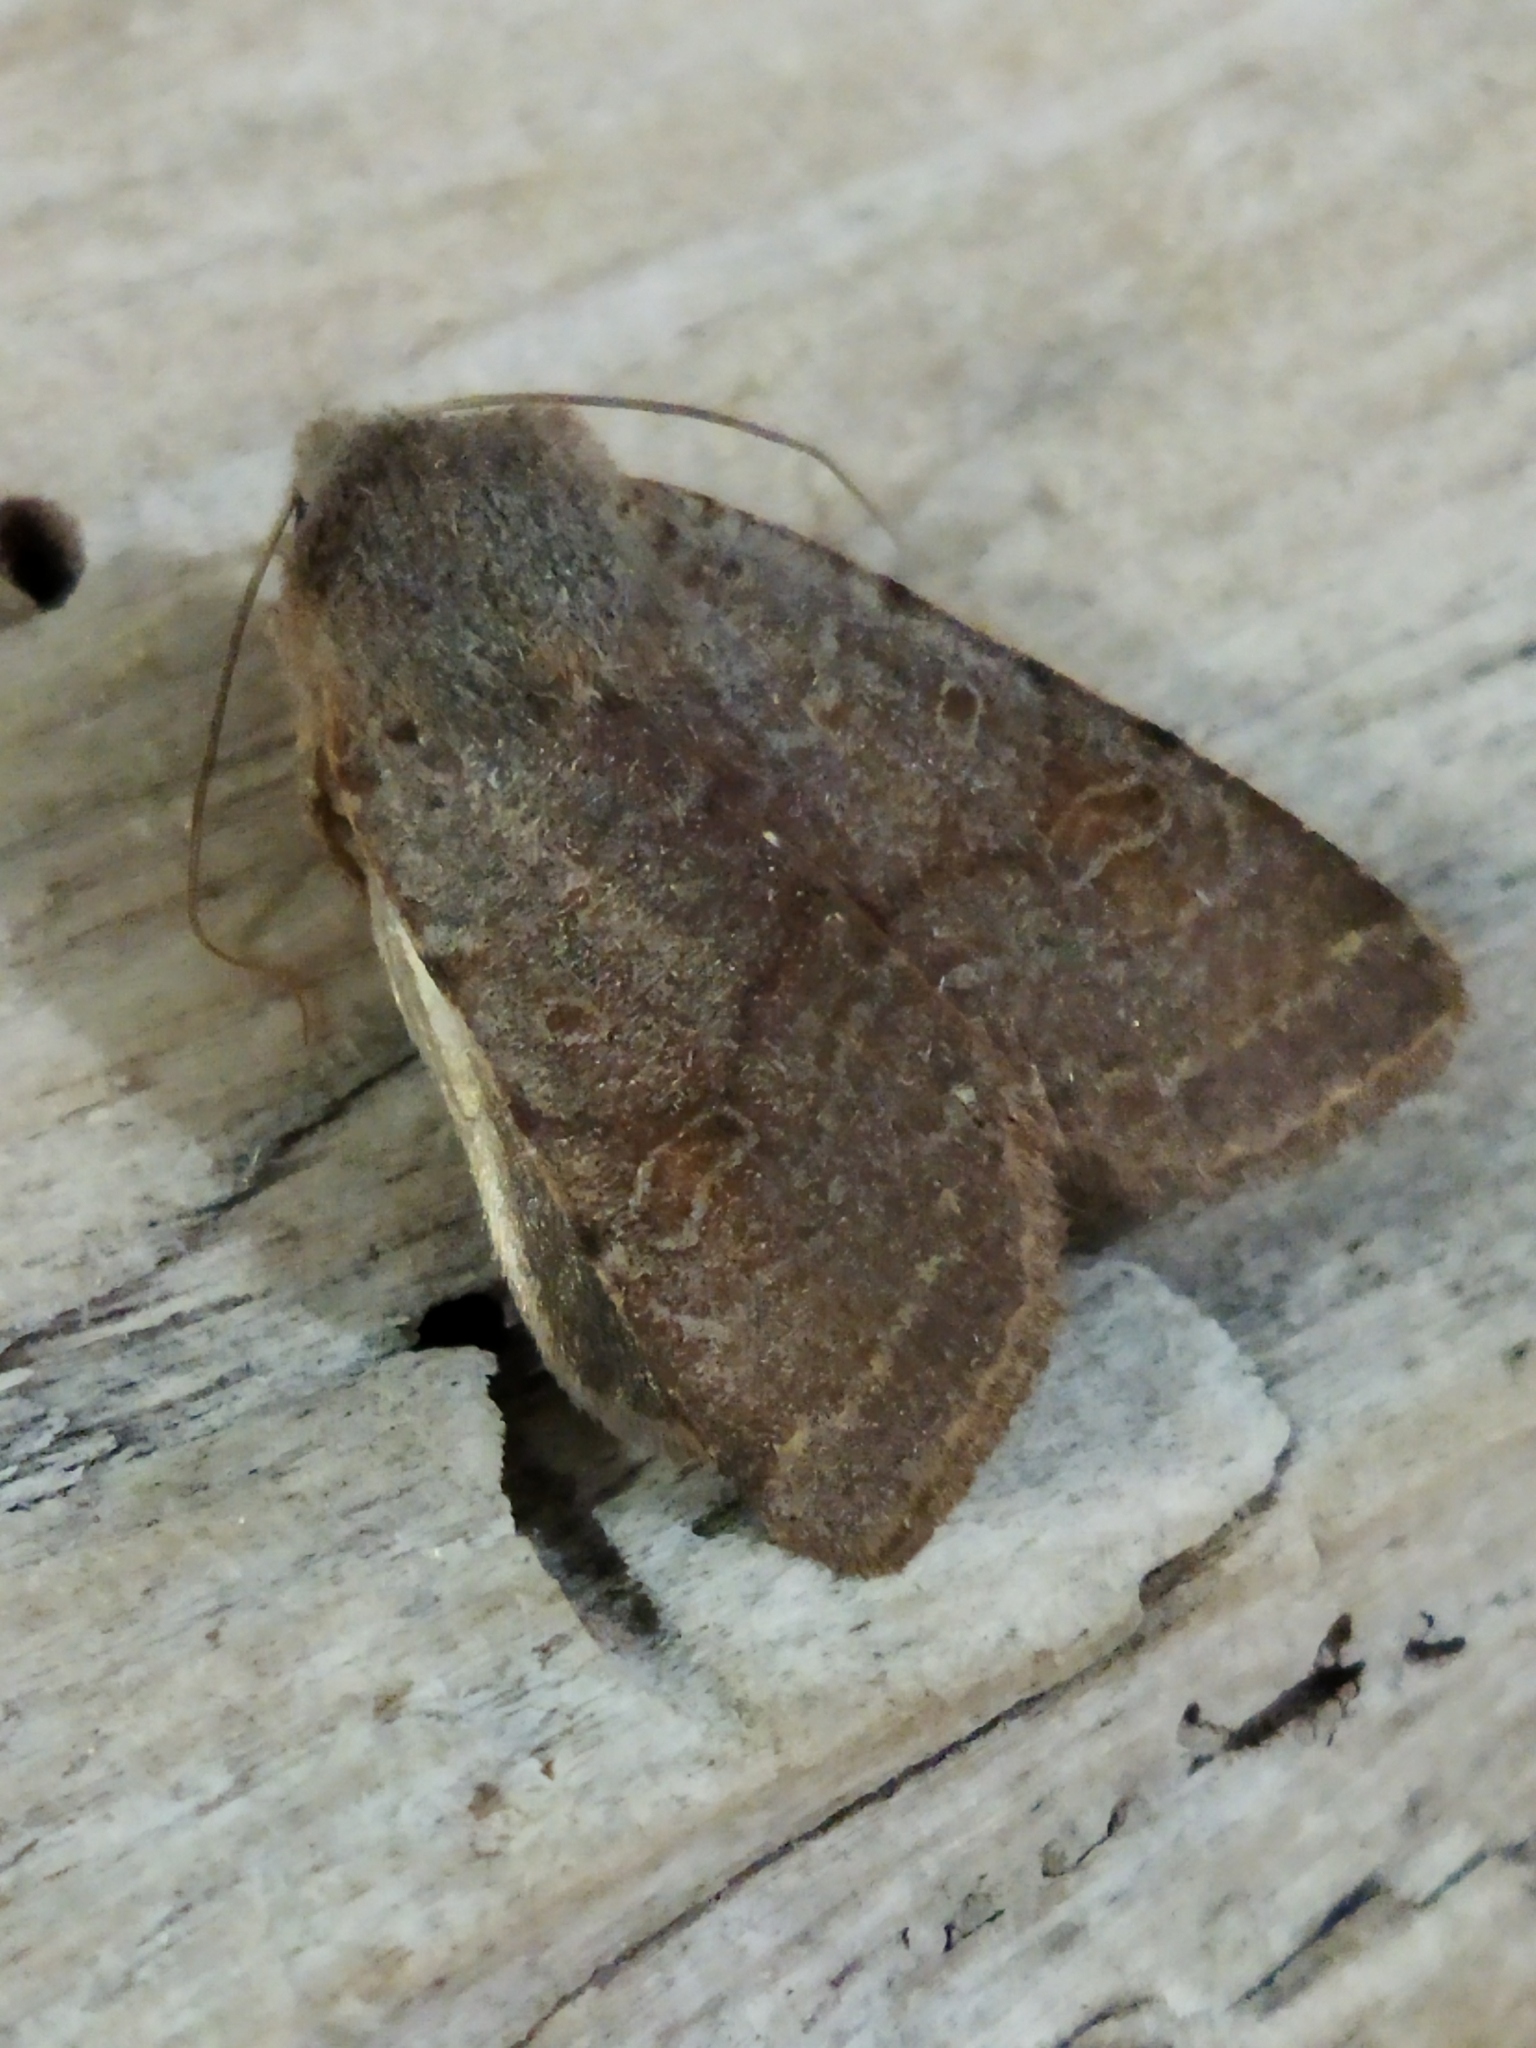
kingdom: Animalia
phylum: Arthropoda
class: Insecta
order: Lepidoptera
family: Noctuidae
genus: Agrochola
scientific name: Agrochola lychnidis
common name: Beaded chestnut
